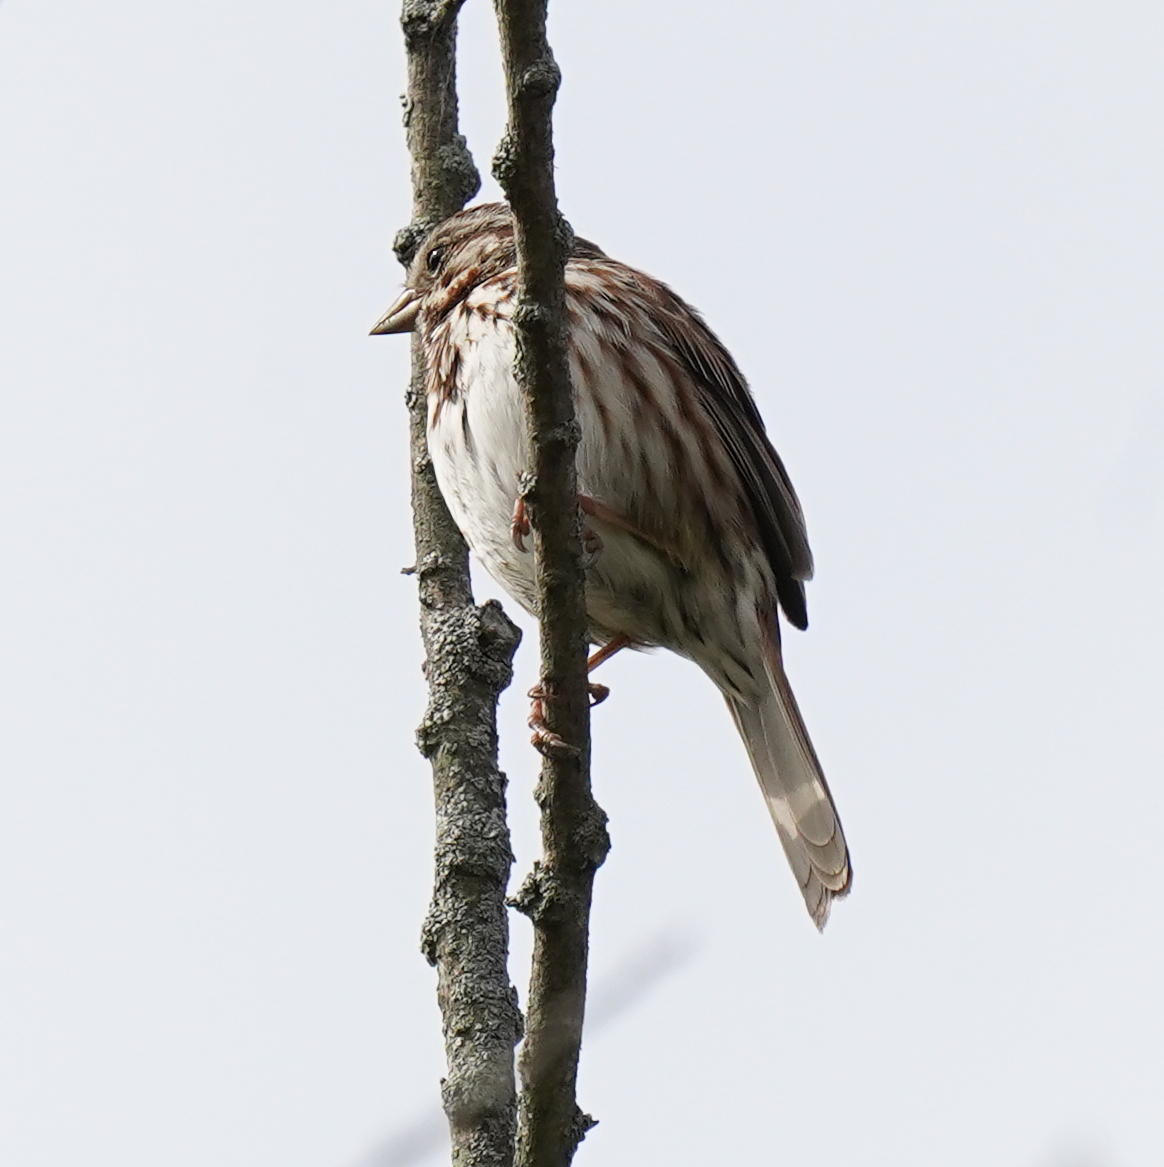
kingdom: Animalia
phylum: Chordata
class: Aves
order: Passeriformes
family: Passerellidae
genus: Melospiza
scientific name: Melospiza melodia
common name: Song sparrow
